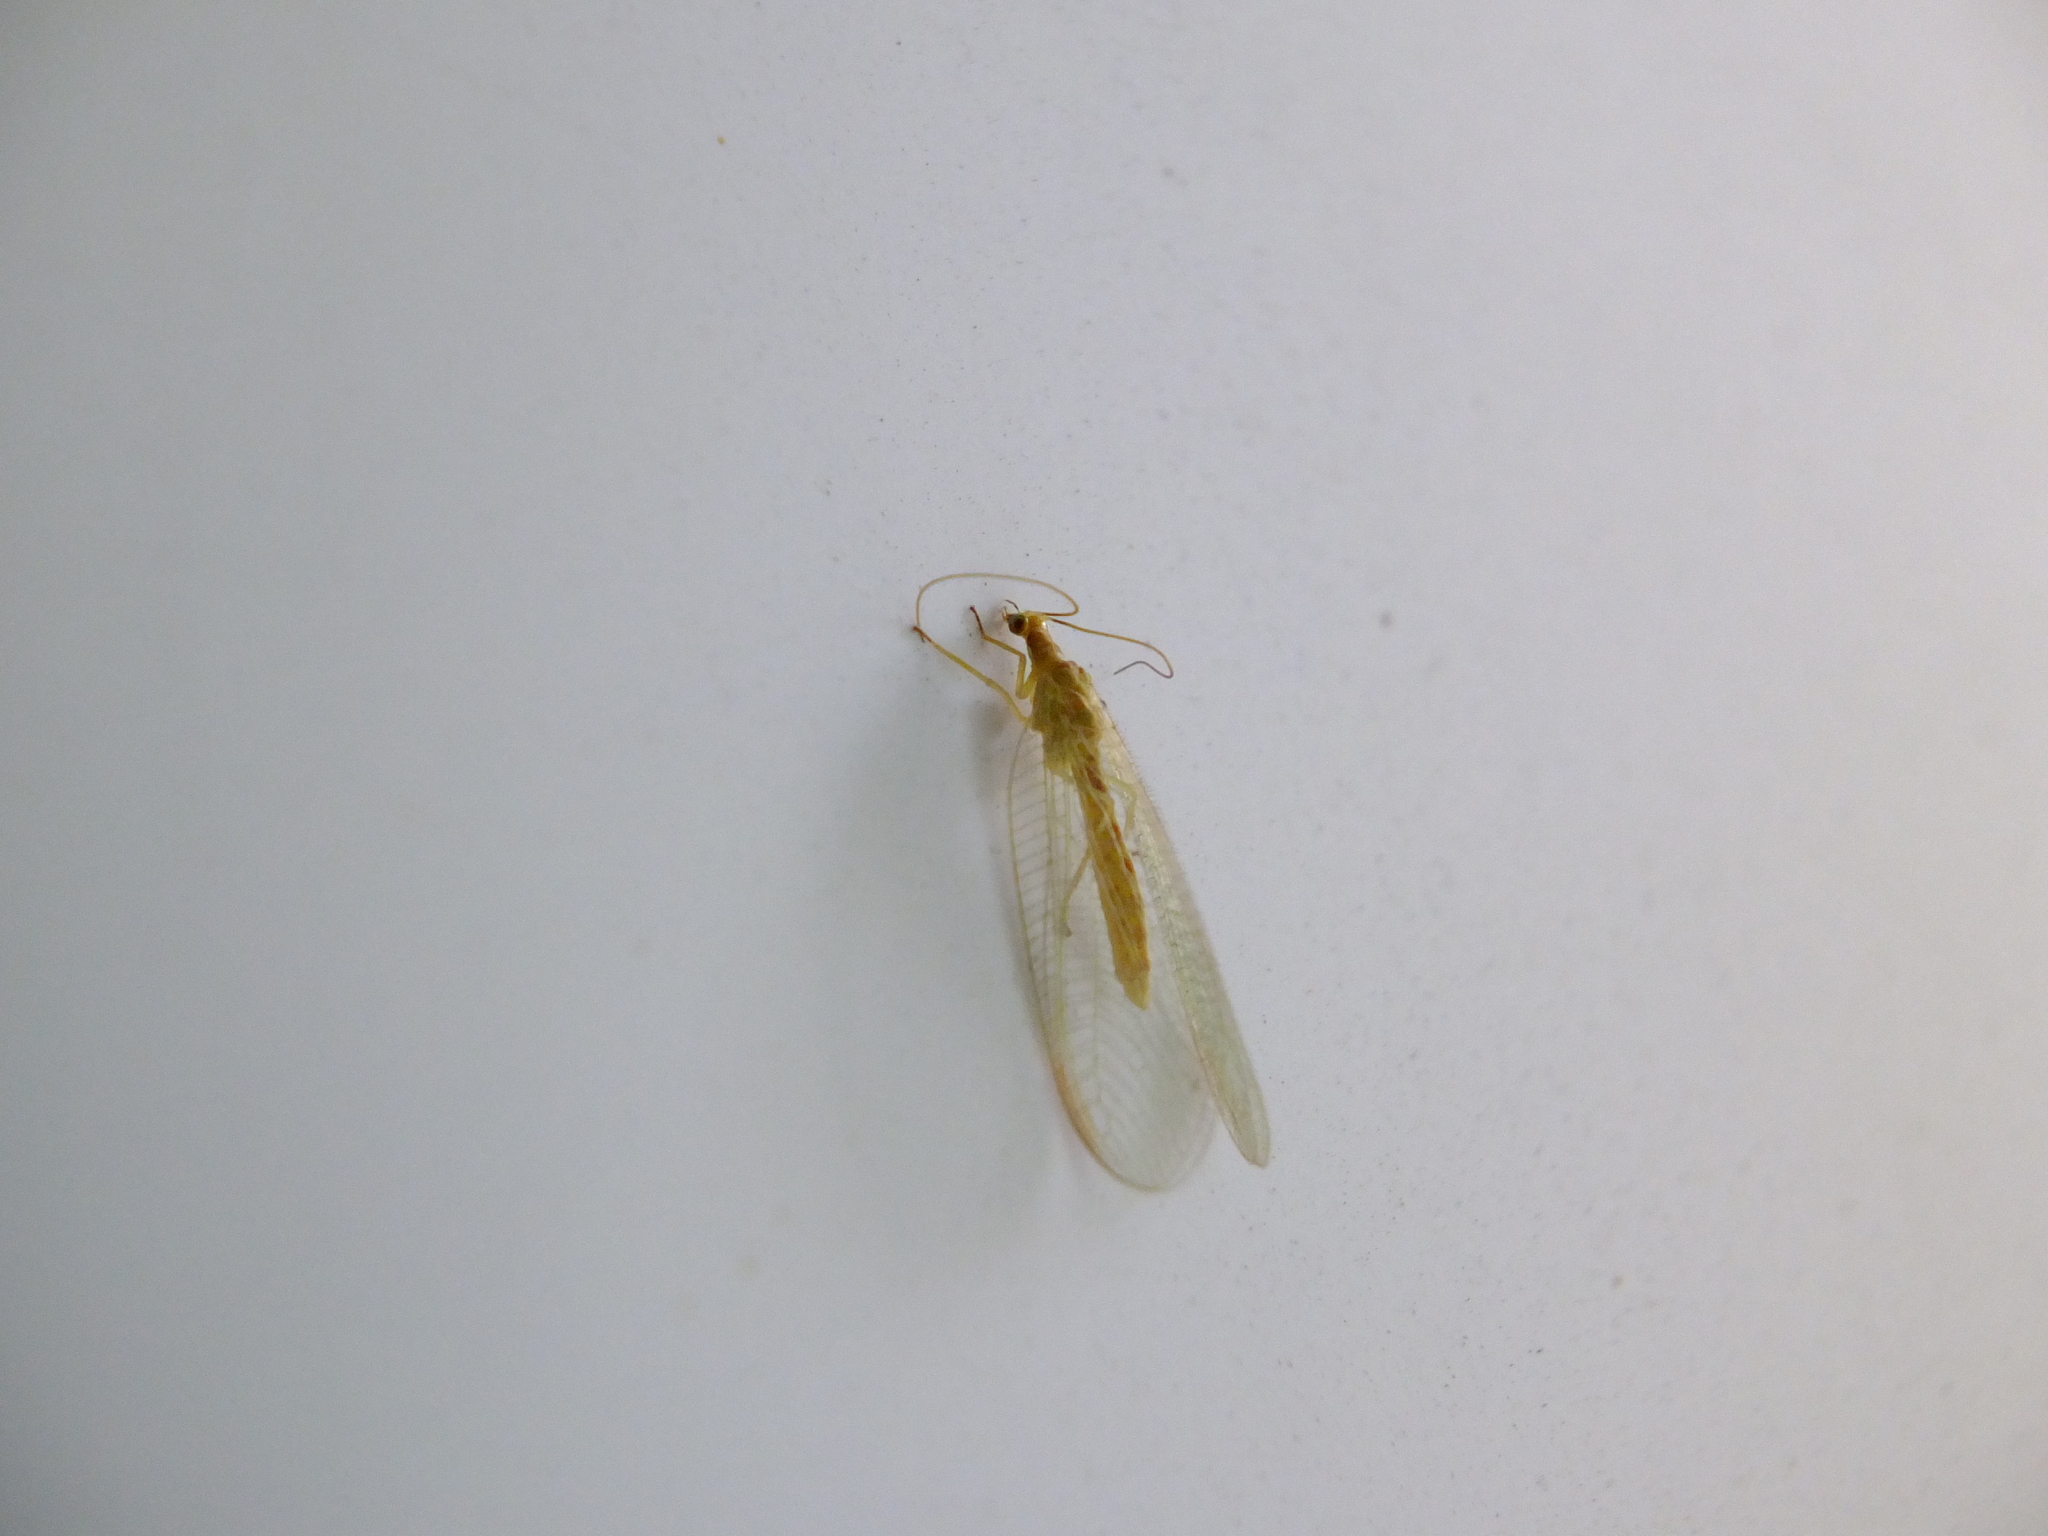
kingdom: Animalia
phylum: Arthropoda
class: Insecta
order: Neuroptera
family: Chrysopidae
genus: Chrysoperla
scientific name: Chrysoperla
